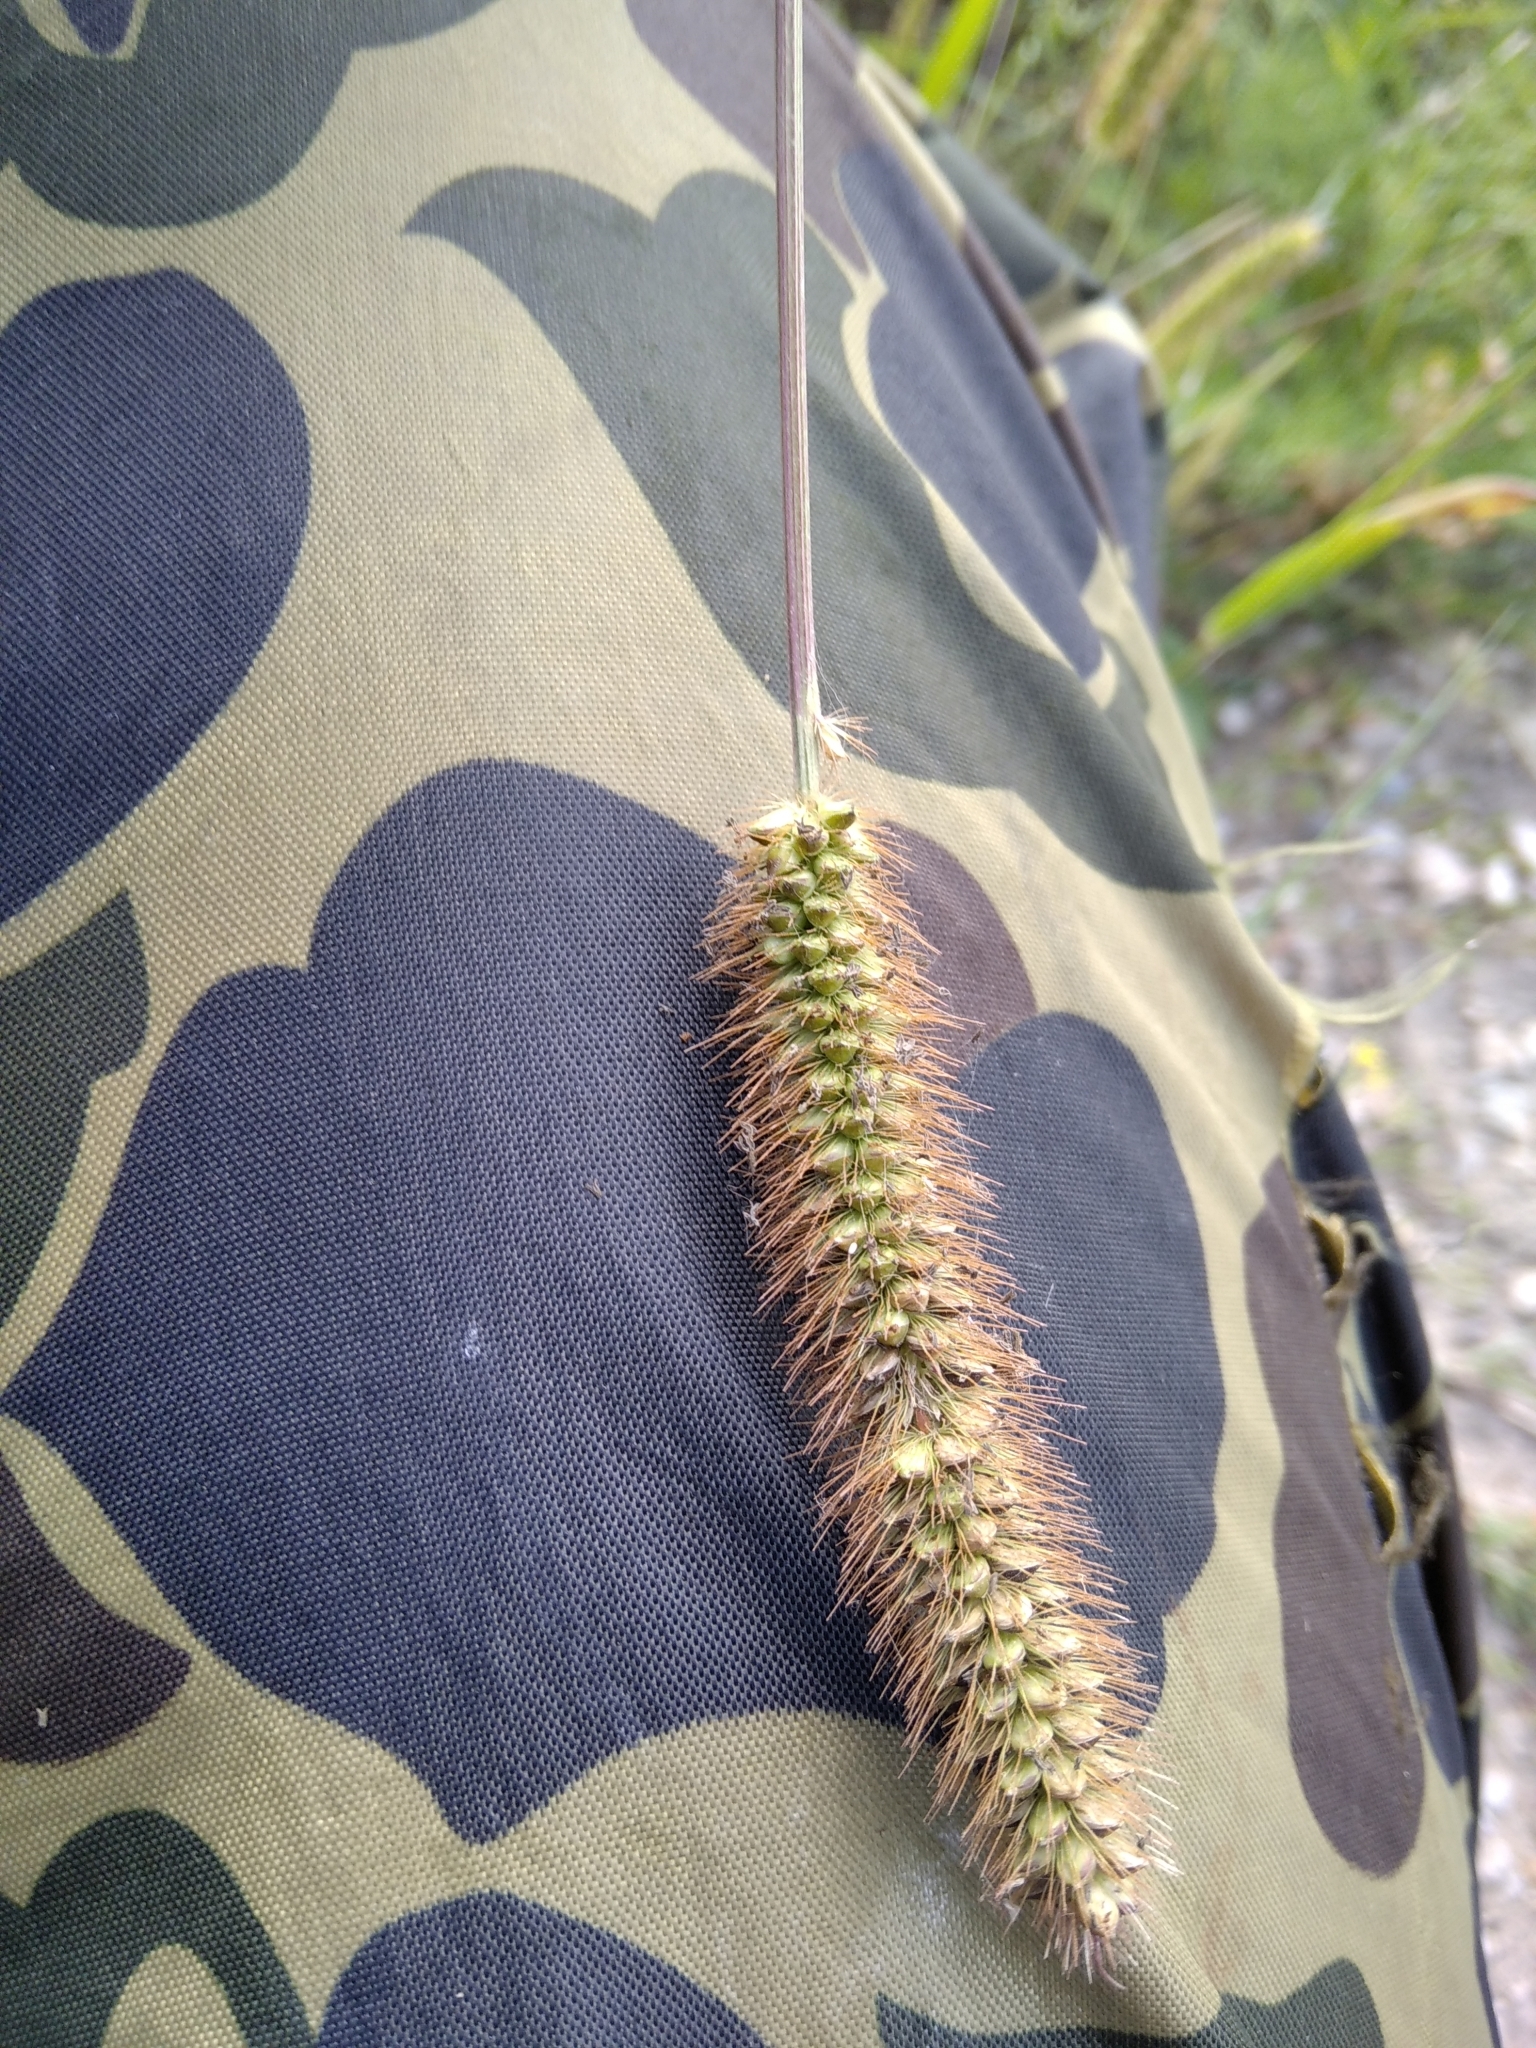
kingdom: Plantae
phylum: Tracheophyta
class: Liliopsida
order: Poales
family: Poaceae
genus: Setaria
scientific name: Setaria pumila
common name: Yellow bristle-grass
